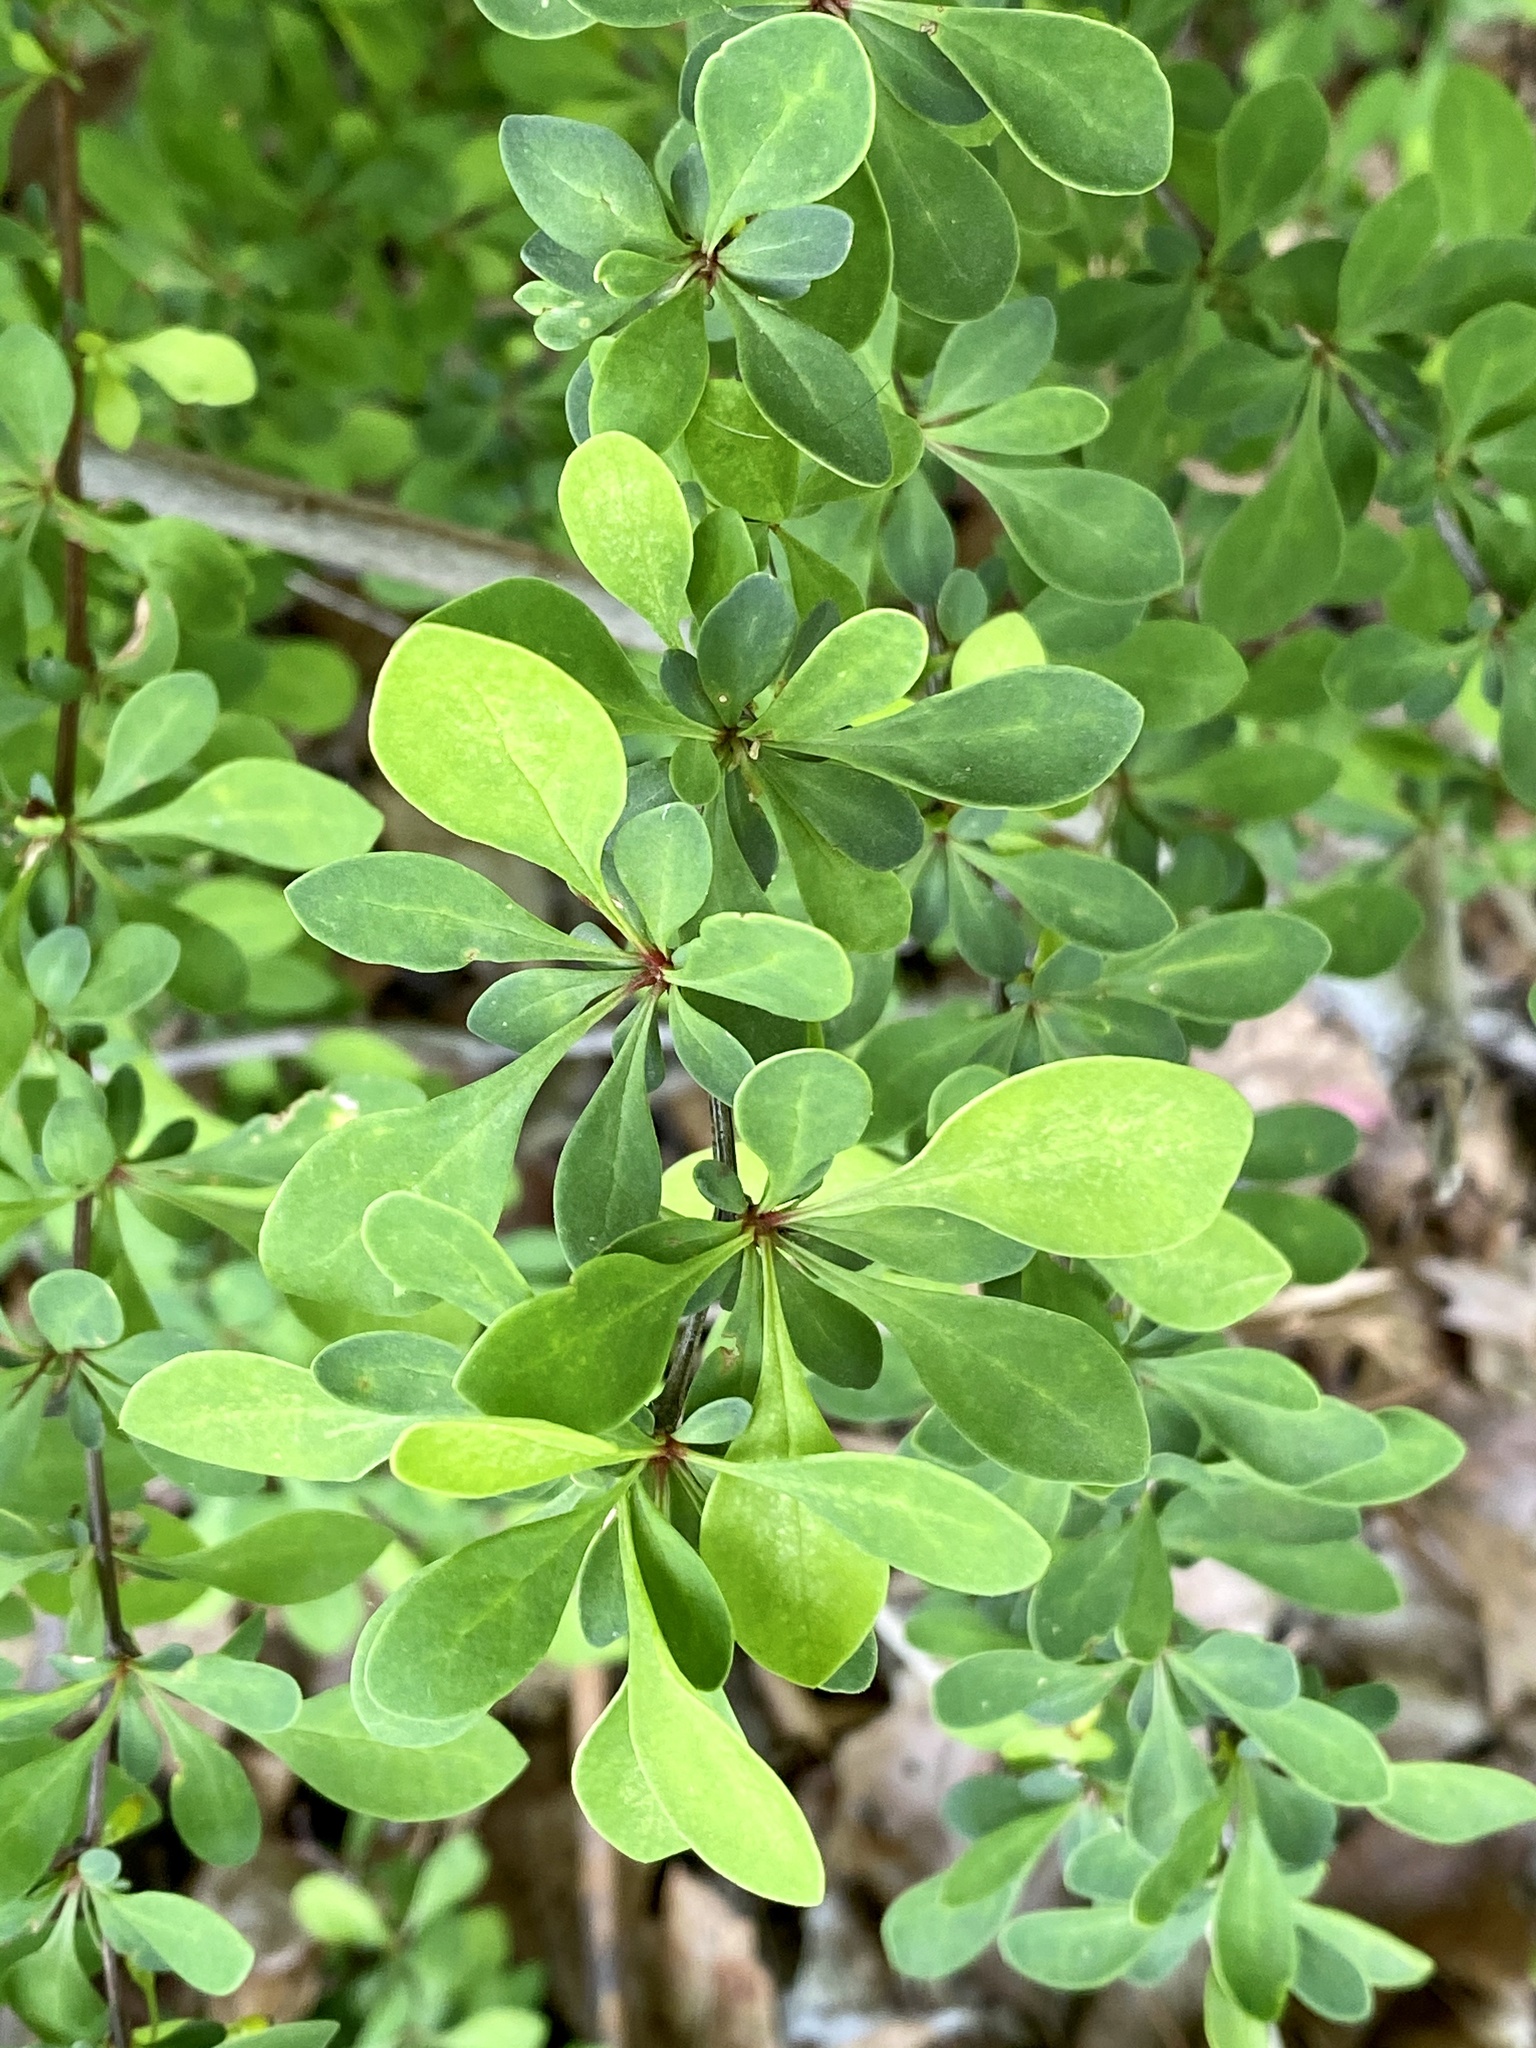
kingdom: Plantae
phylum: Tracheophyta
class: Magnoliopsida
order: Ranunculales
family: Berberidaceae
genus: Berberis
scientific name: Berberis thunbergii
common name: Japanese barberry
